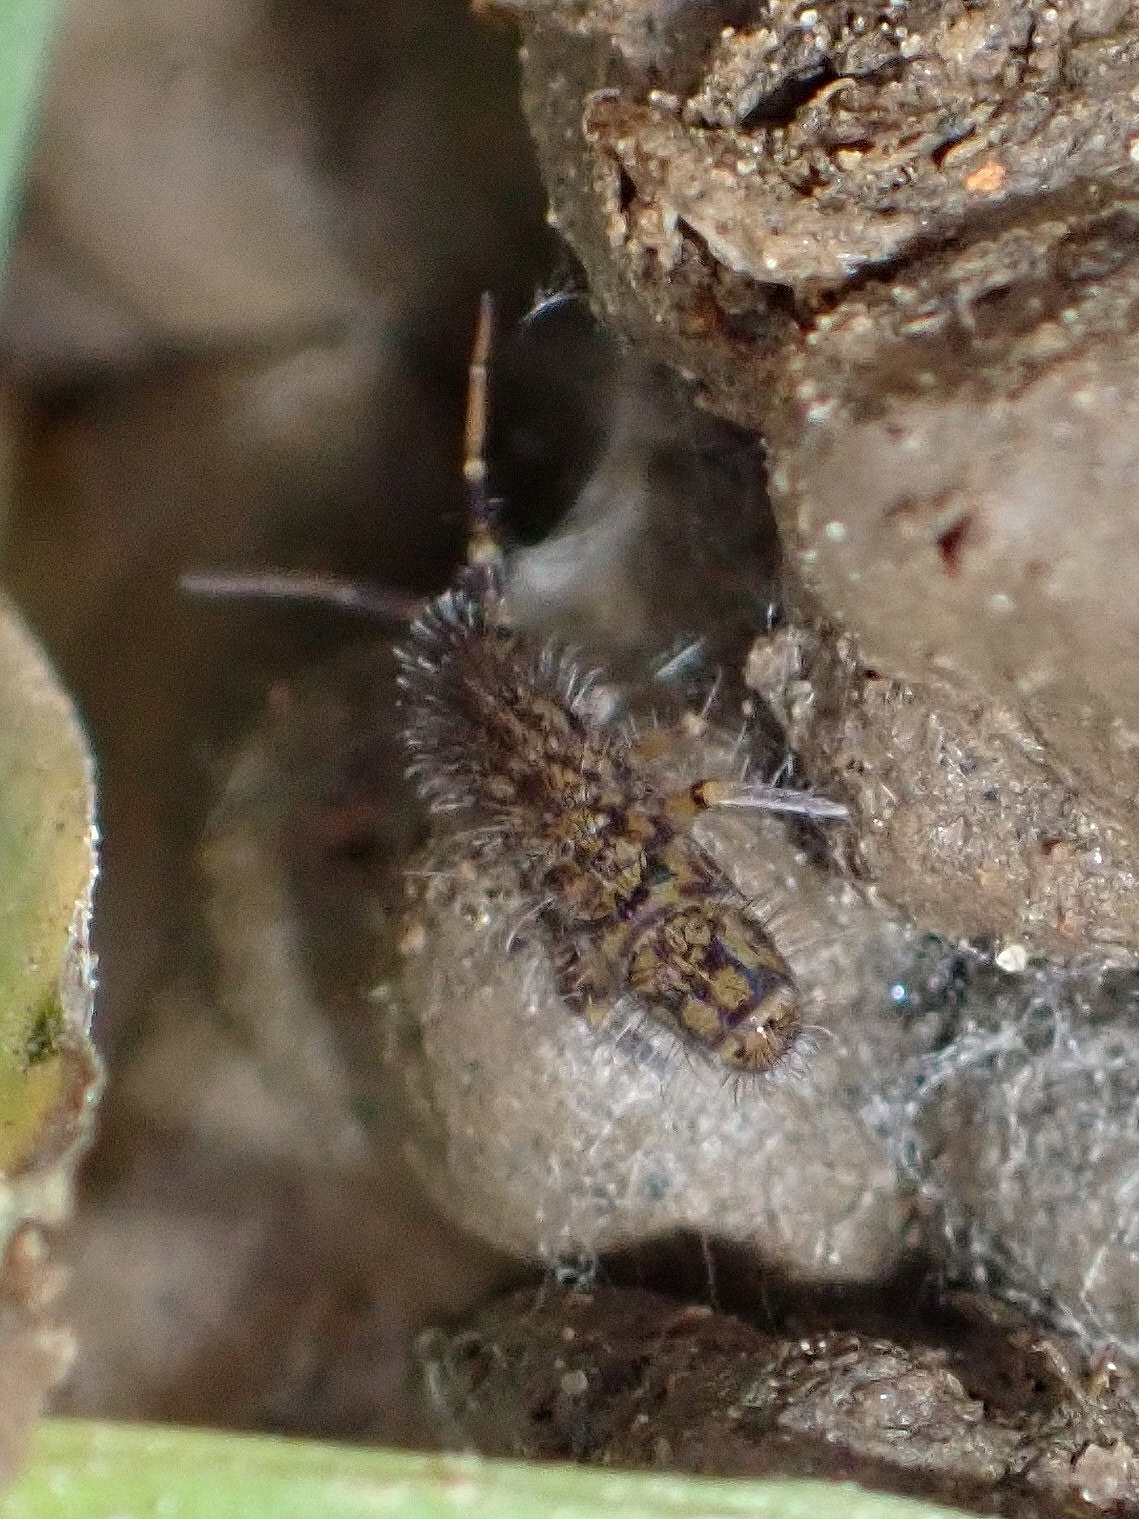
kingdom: Animalia
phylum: Arthropoda
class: Collembola
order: Entomobryomorpha
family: Orchesellidae
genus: Orchesella
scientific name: Orchesella villosa
